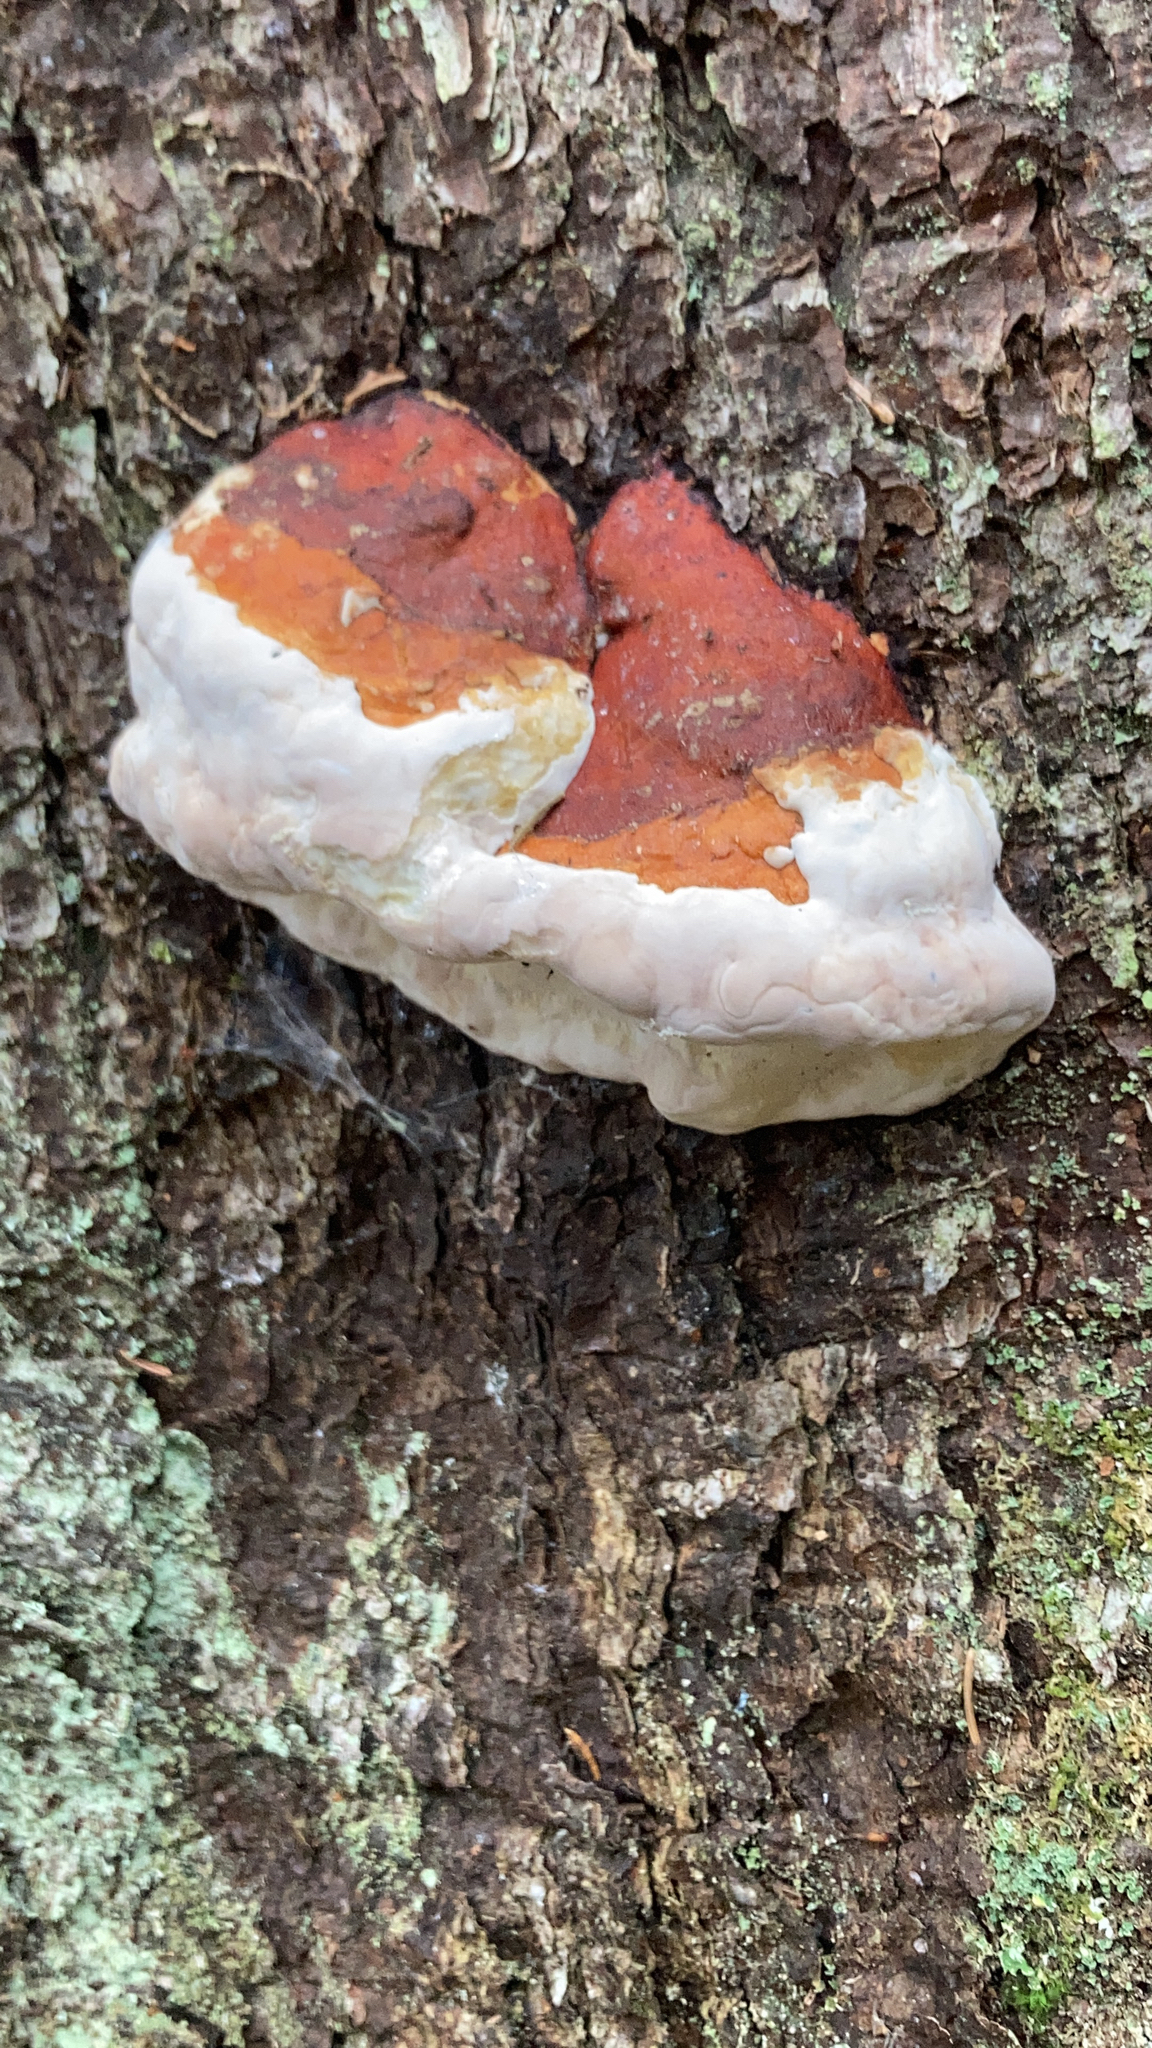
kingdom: Fungi
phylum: Basidiomycota
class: Agaricomycetes
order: Polyporales
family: Fomitopsidaceae
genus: Fomitopsis
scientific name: Fomitopsis mounceae
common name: Northern red belt
